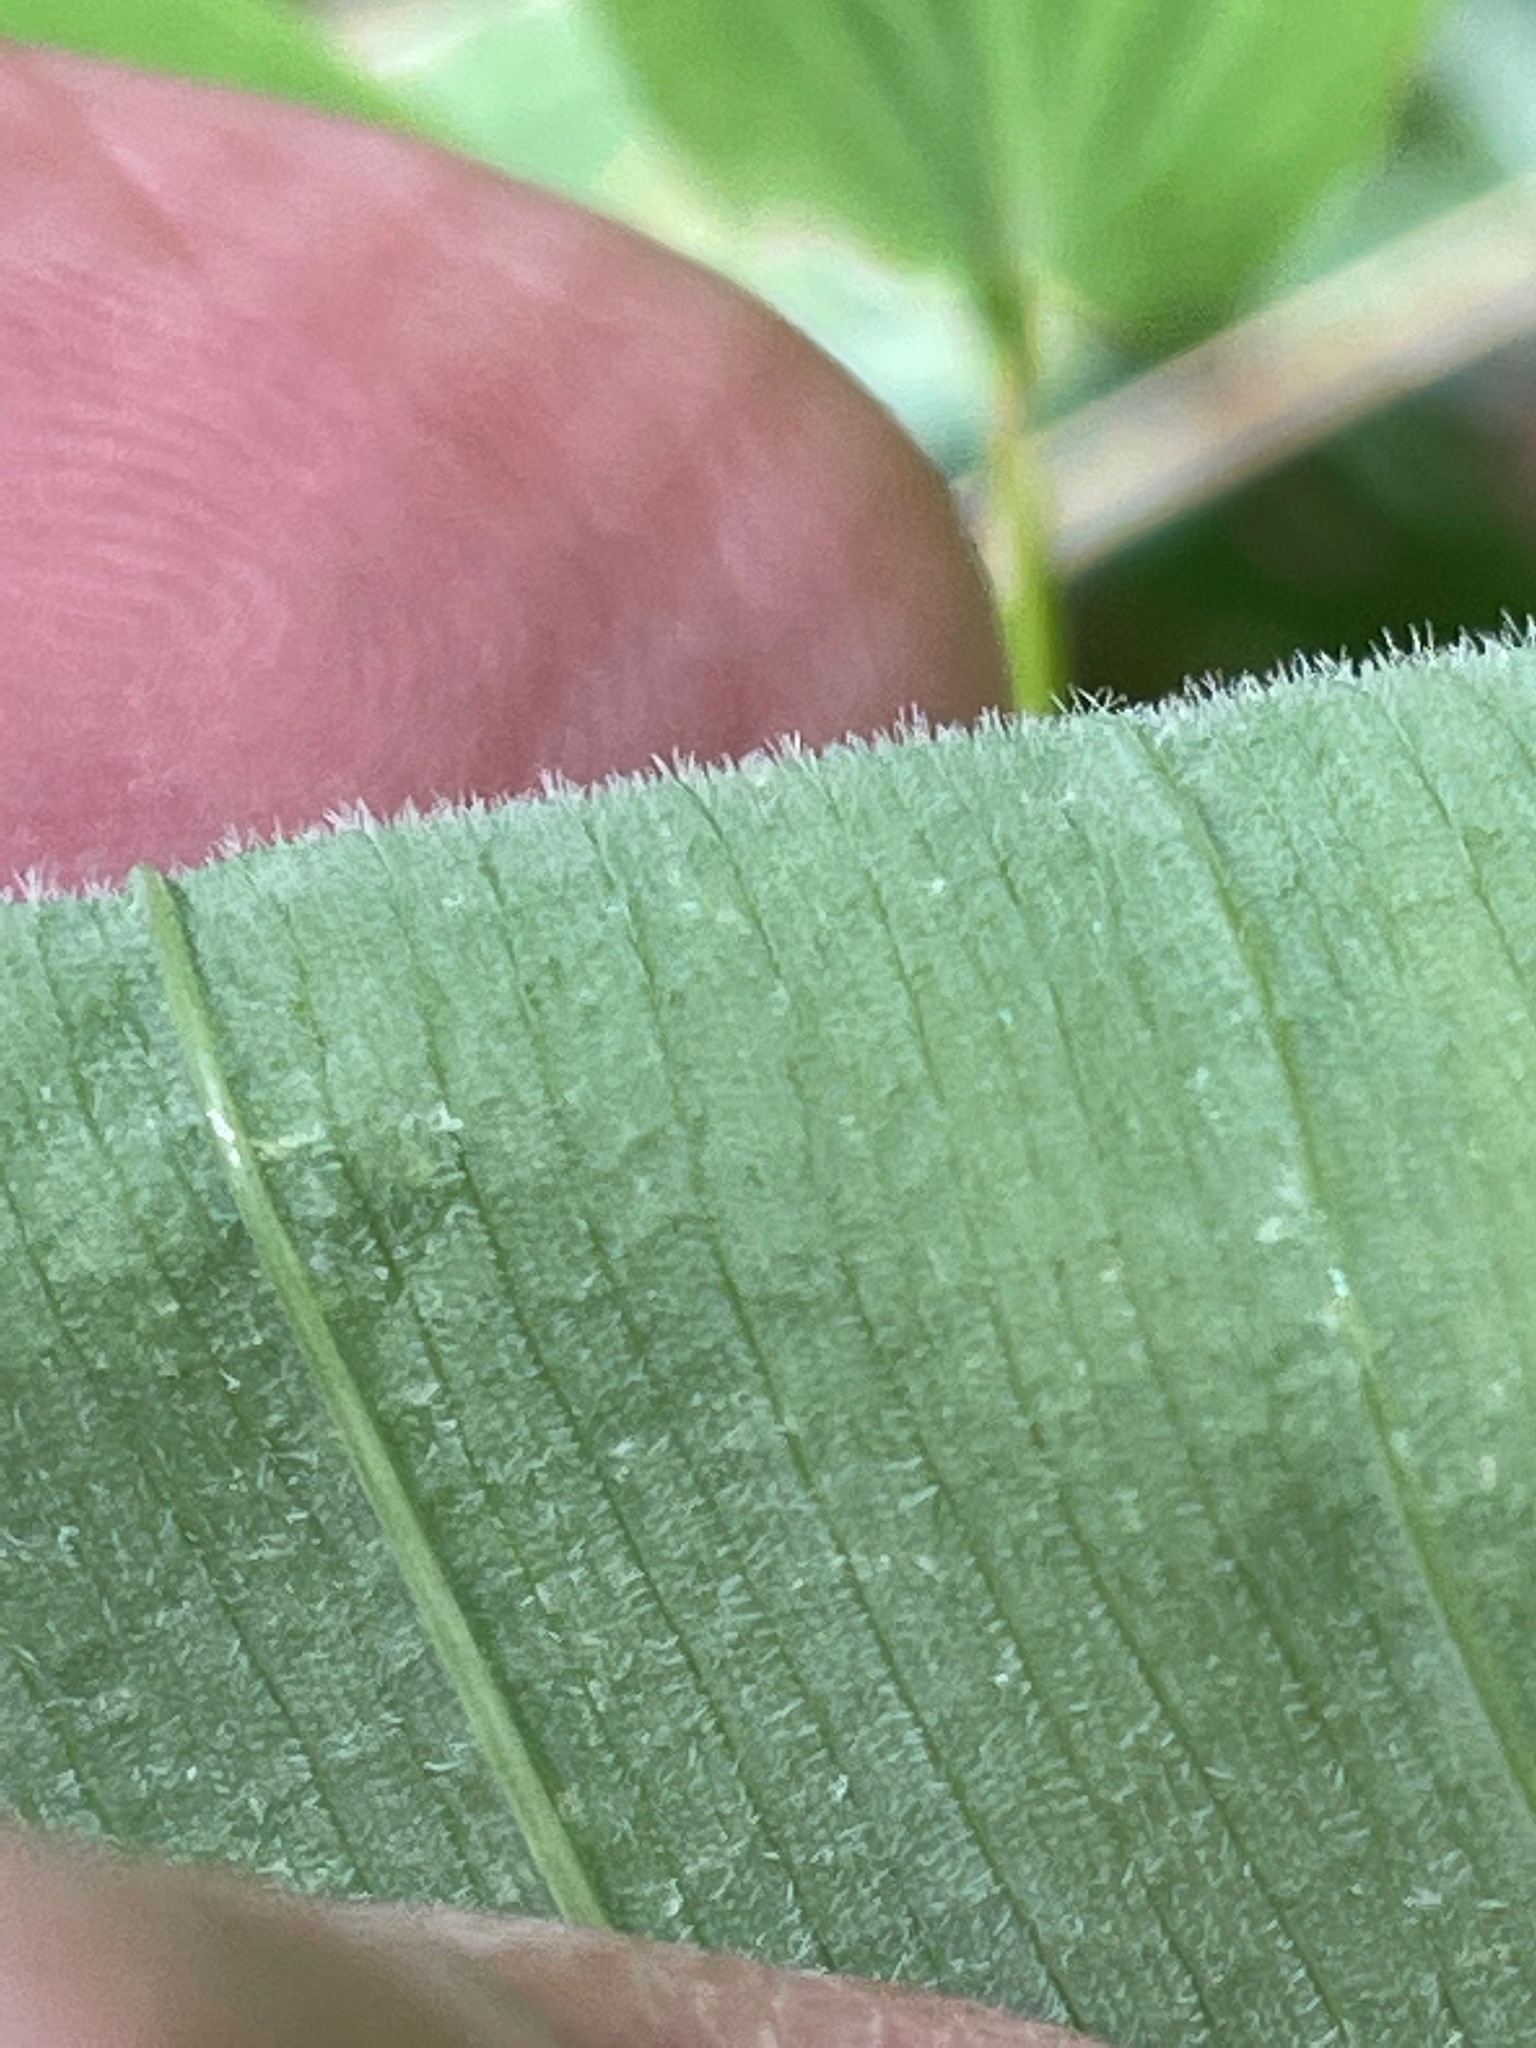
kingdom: Plantae
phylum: Tracheophyta
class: Liliopsida
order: Liliales
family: Colchicaceae
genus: Uvularia
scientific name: Uvularia grandiflora
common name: Bellwort
